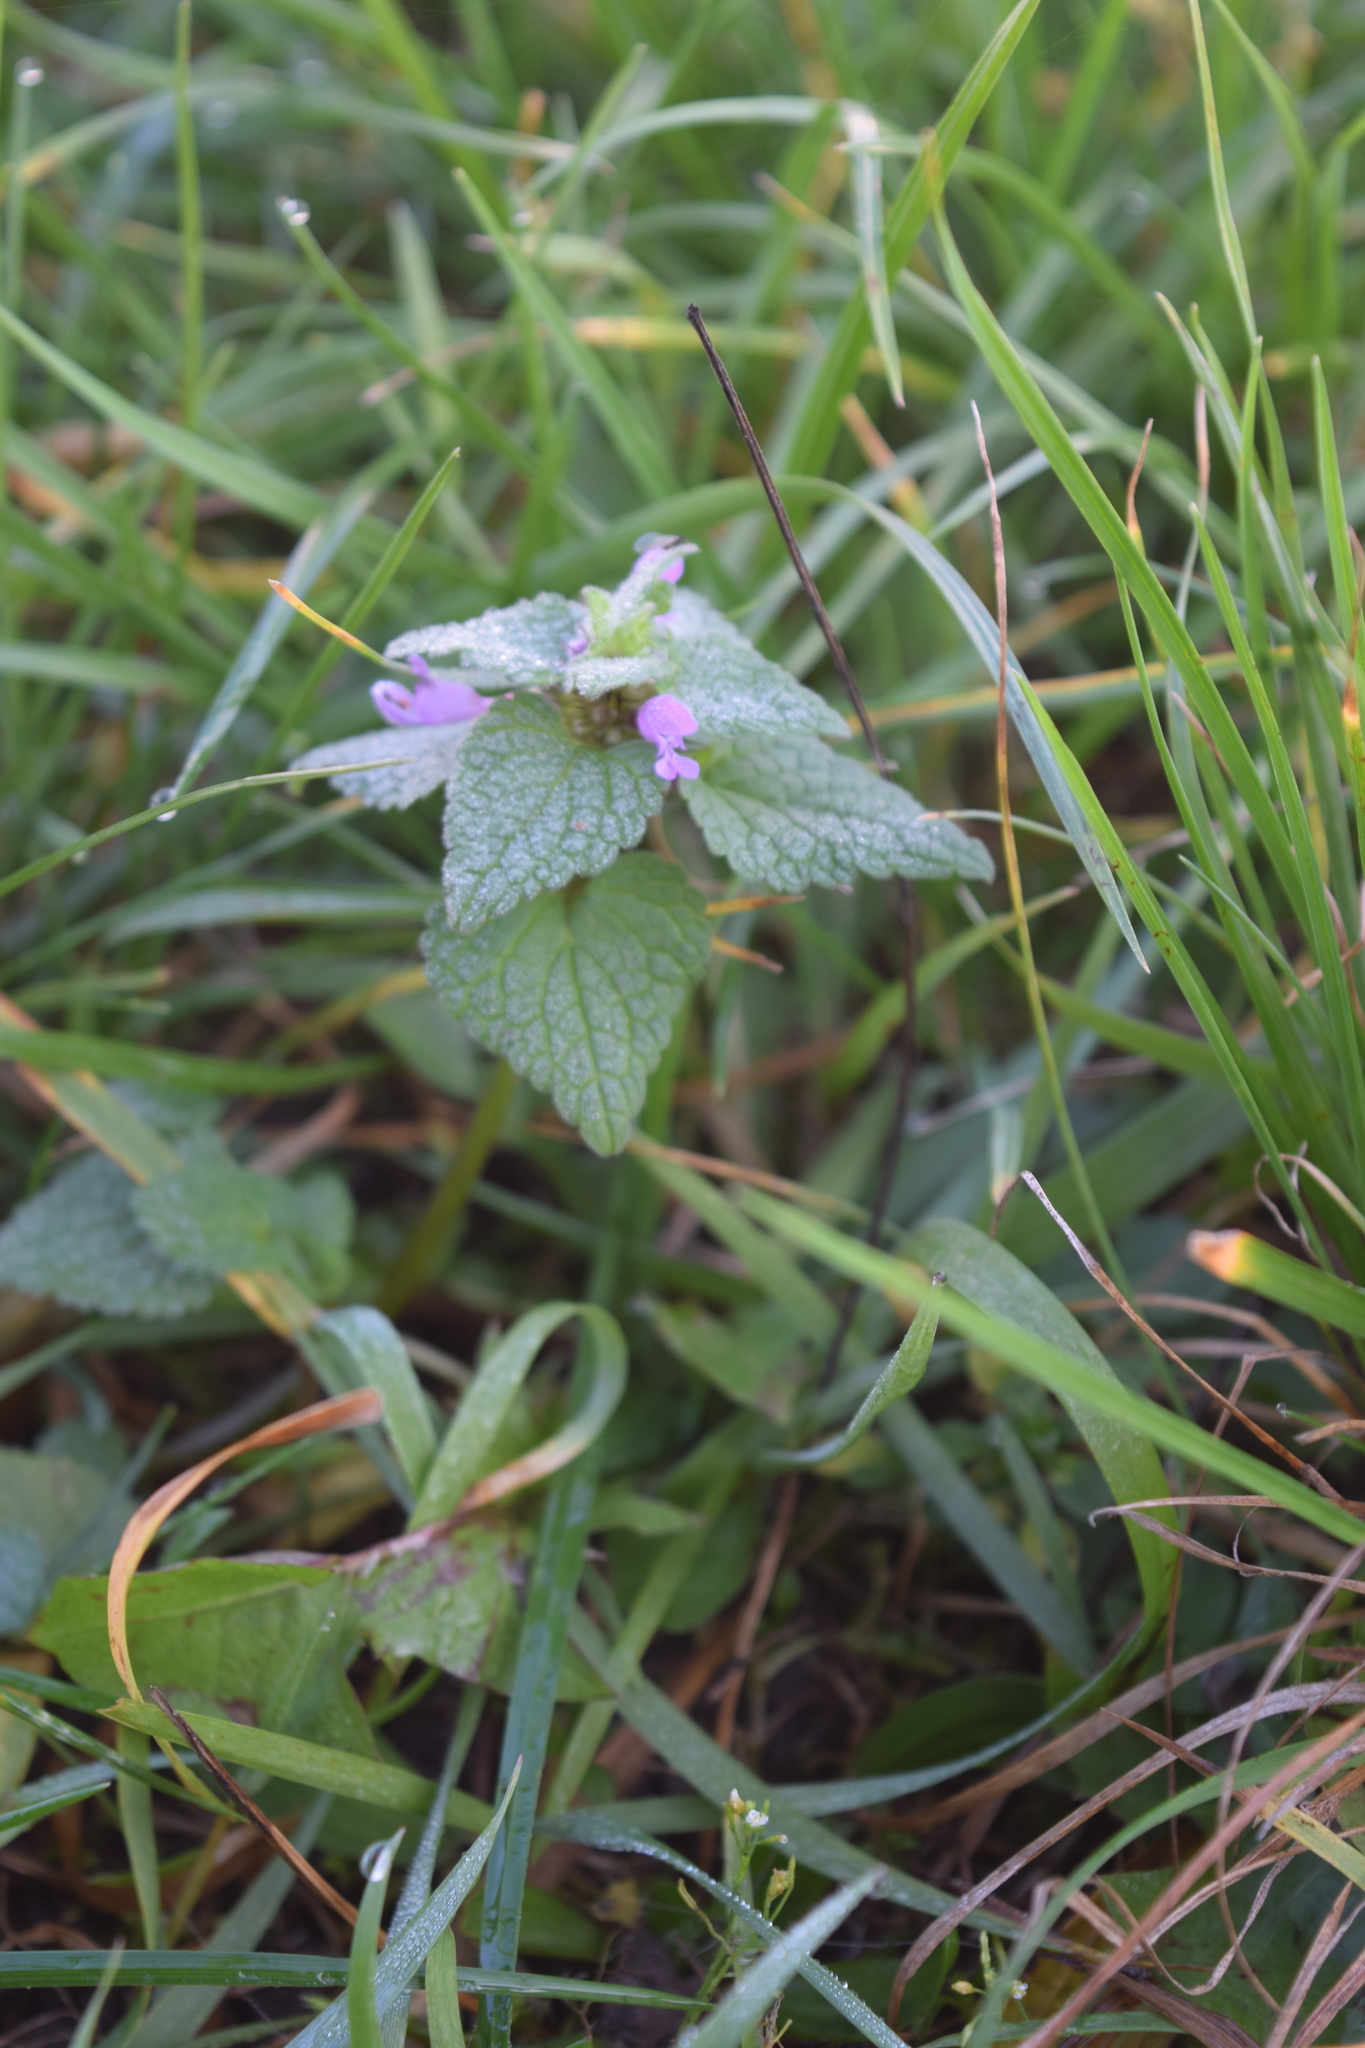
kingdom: Plantae
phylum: Tracheophyta
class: Magnoliopsida
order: Lamiales
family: Lamiaceae
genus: Lamium
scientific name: Lamium purpureum
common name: Red dead-nettle
